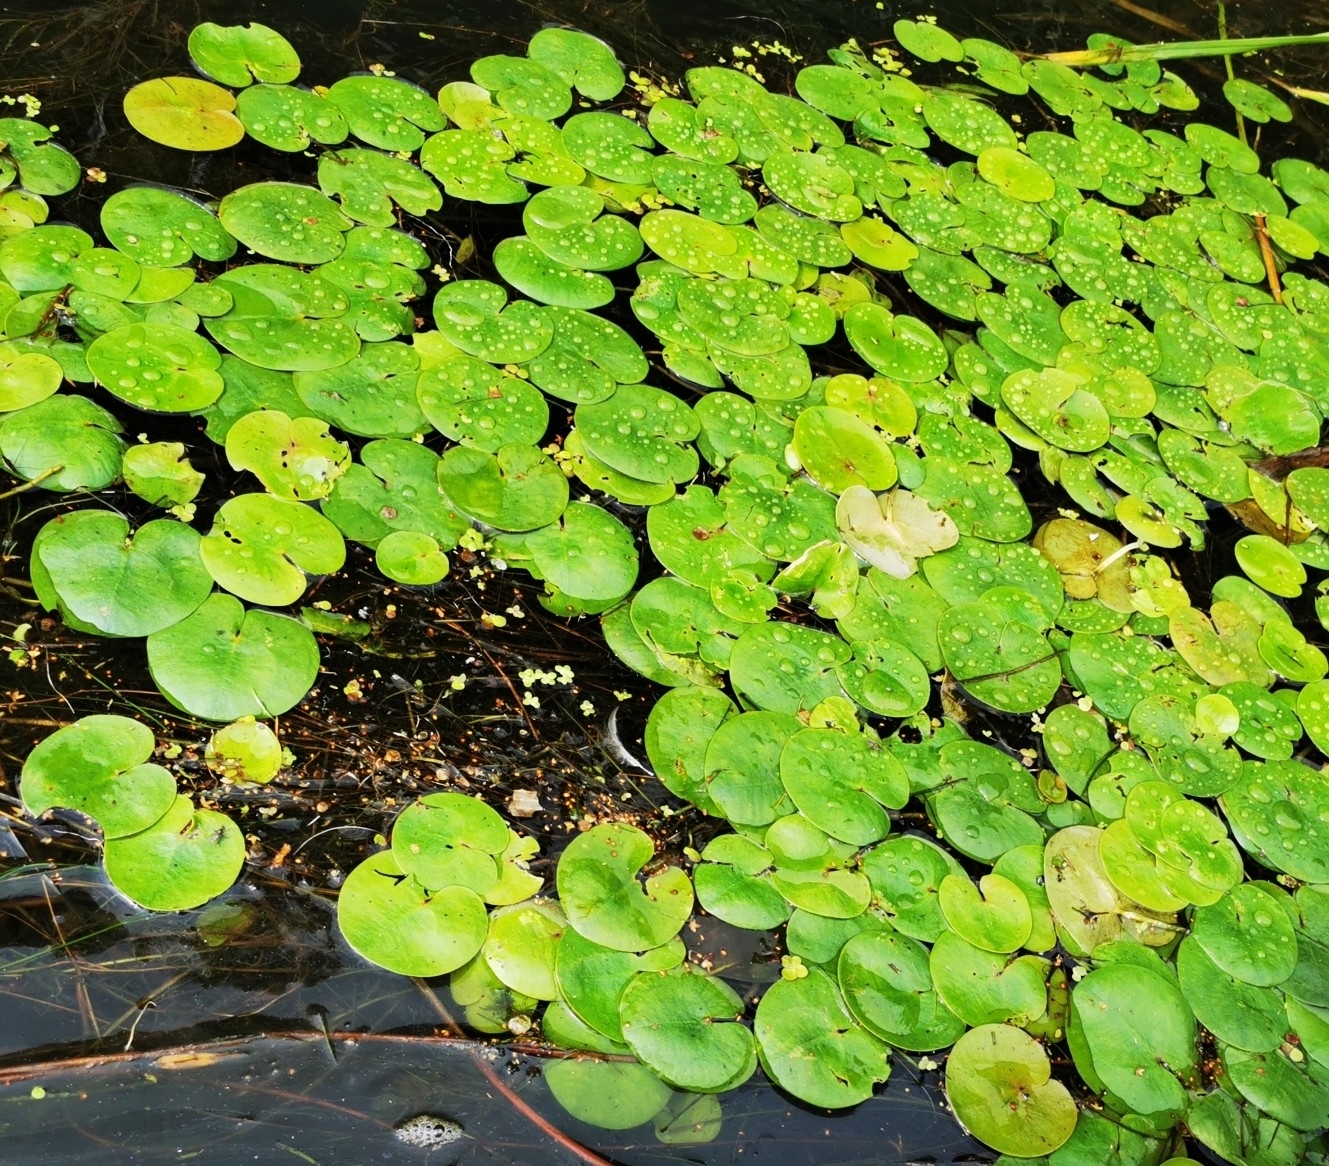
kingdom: Plantae
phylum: Tracheophyta
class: Liliopsida
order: Alismatales
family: Hydrocharitaceae
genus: Hydrocharis
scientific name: Hydrocharis morsus-ranae
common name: Frogbit
